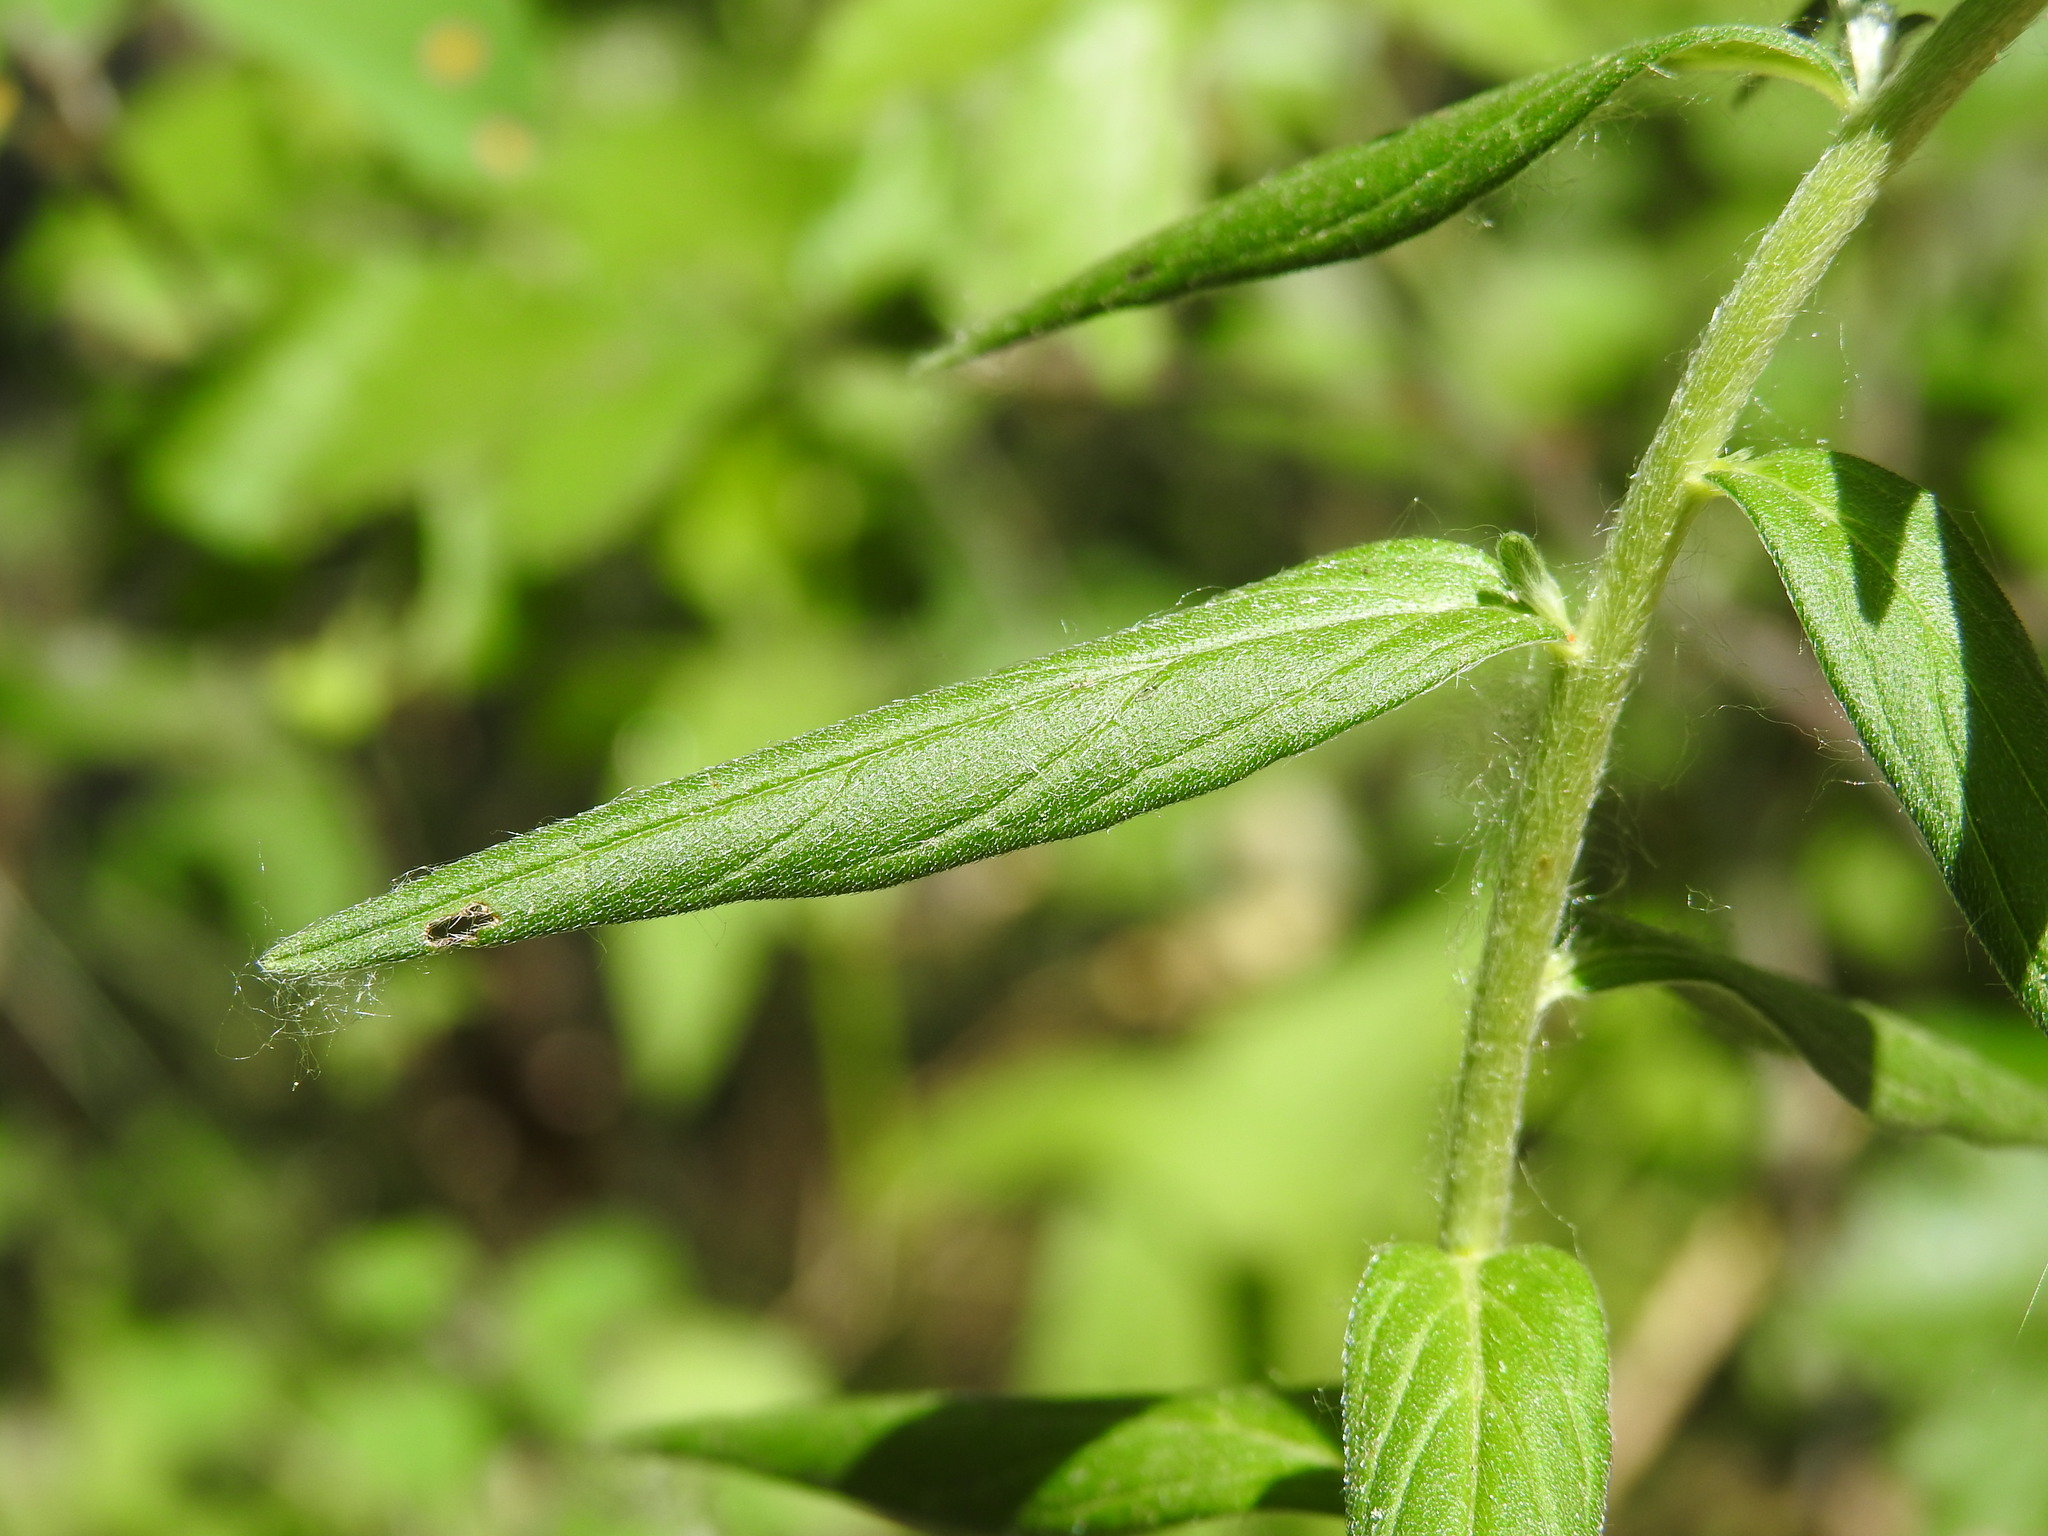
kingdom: Plantae
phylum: Tracheophyta
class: Magnoliopsida
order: Boraginales
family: Boraginaceae
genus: Lithospermum
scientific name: Lithospermum officinale
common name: Common gromwell
